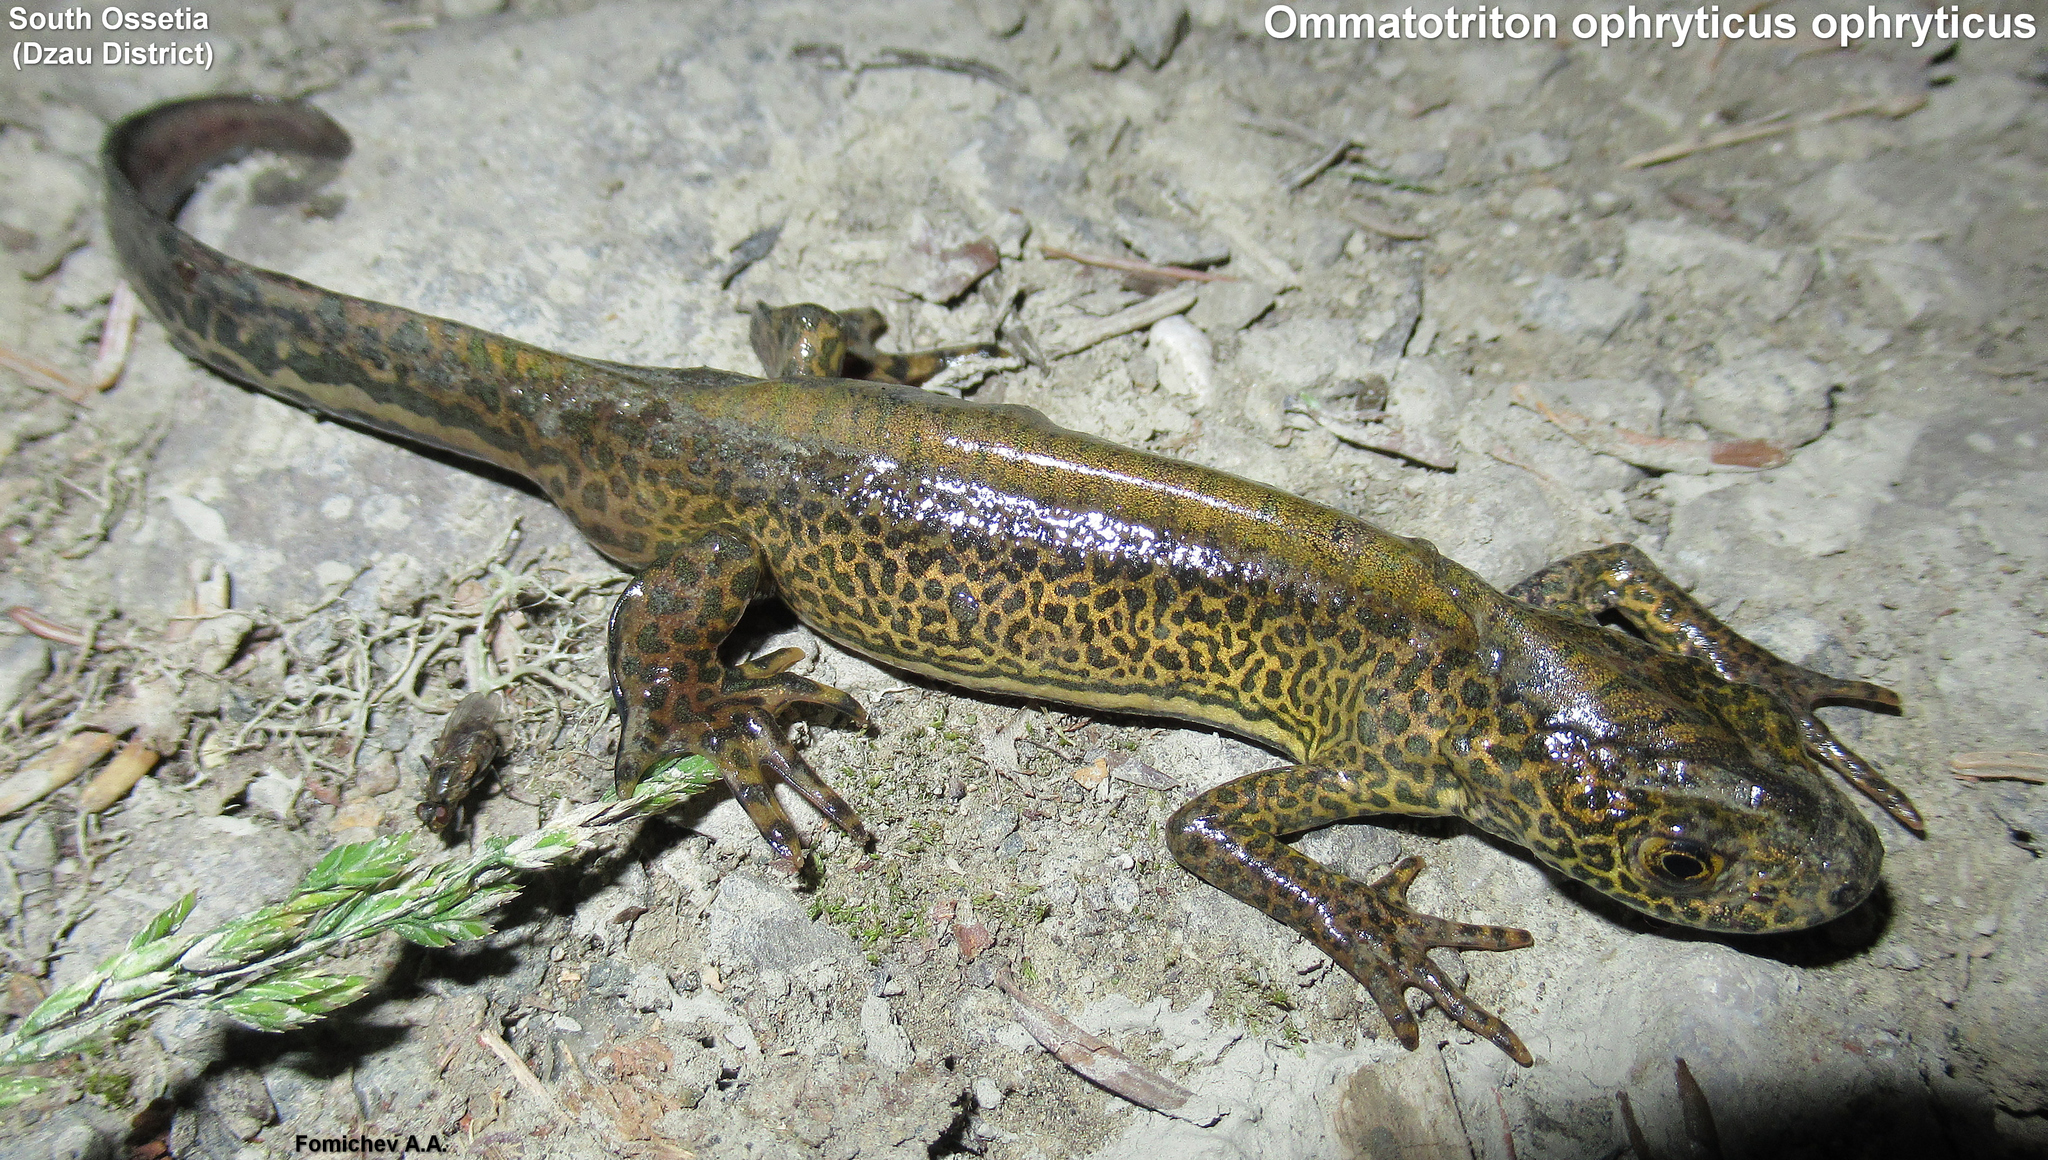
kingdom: Animalia
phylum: Chordata
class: Amphibia
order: Caudata
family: Salamandridae
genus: Ommatotriton
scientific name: Ommatotriton ophryticus
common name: Northern banded newt
